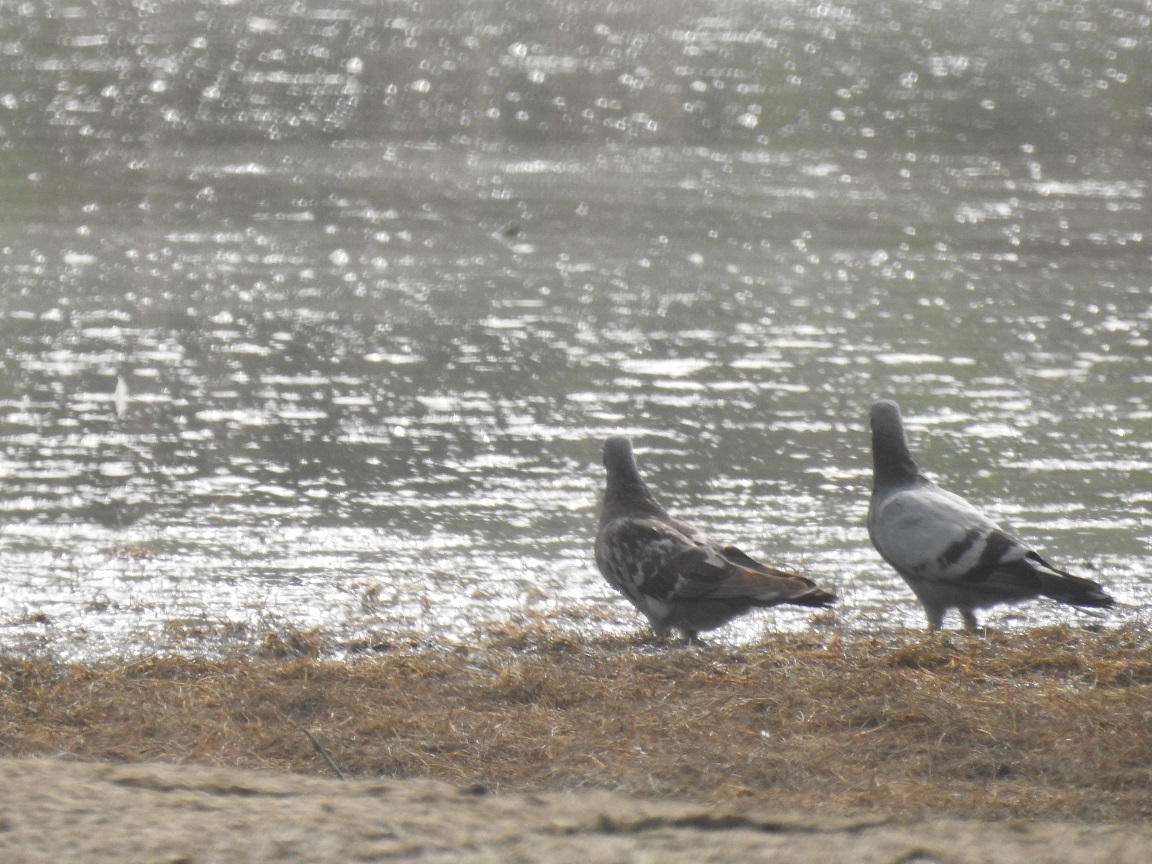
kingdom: Animalia
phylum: Chordata
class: Aves
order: Columbiformes
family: Columbidae
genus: Columba
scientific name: Columba livia
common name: Rock pigeon
